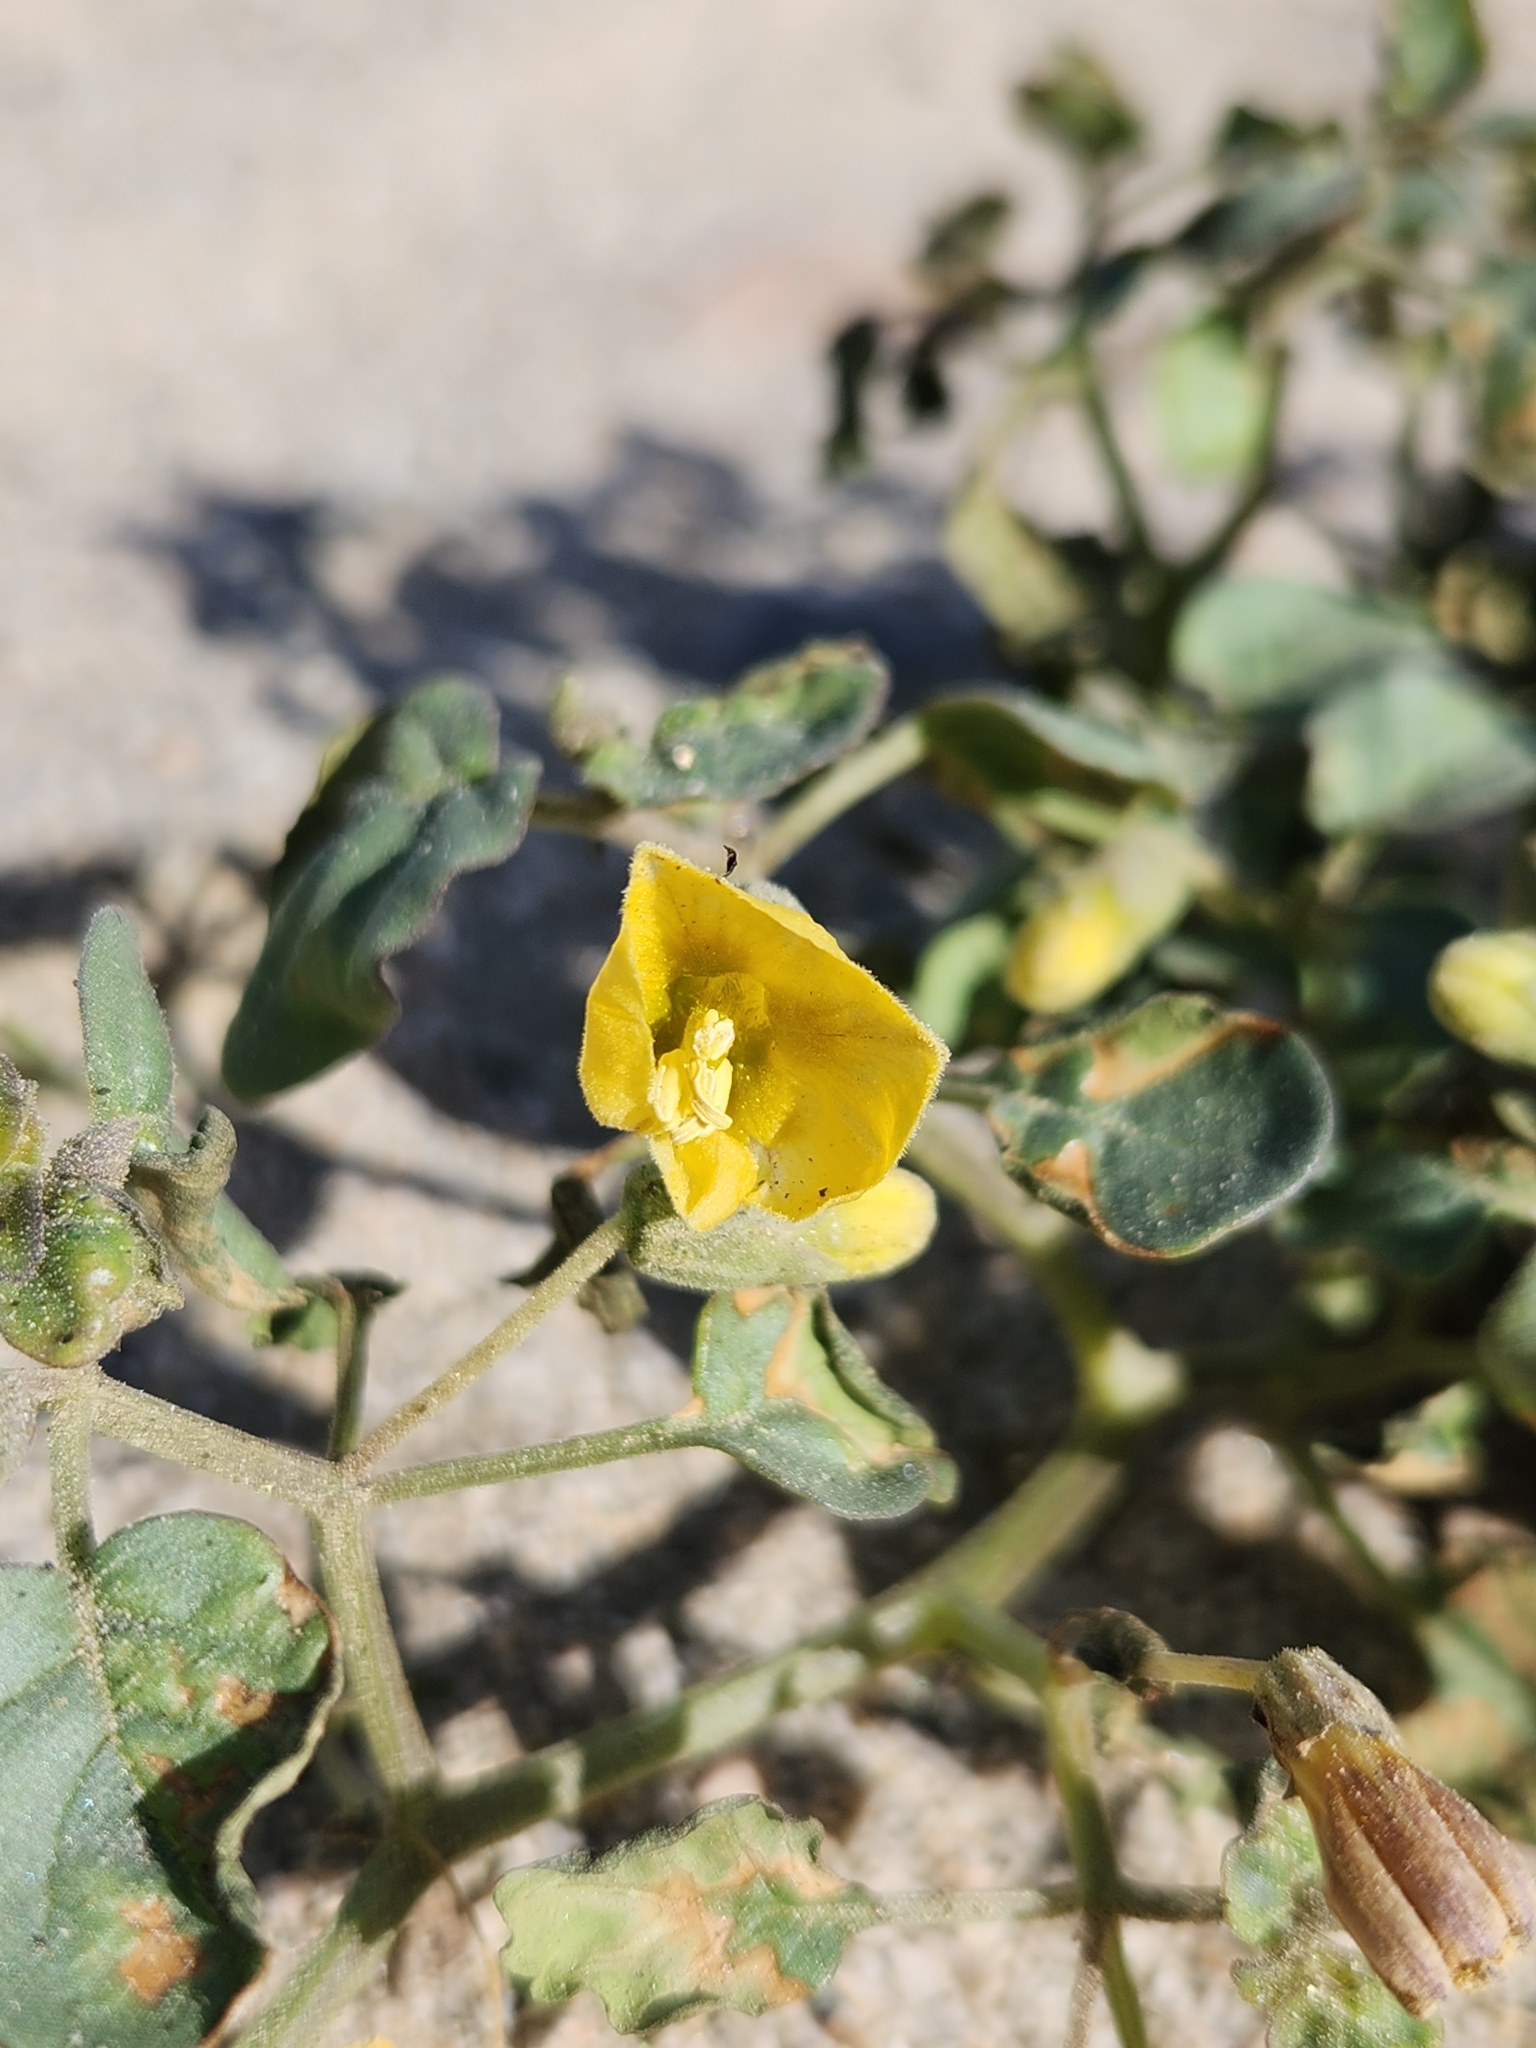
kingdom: Plantae
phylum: Tracheophyta
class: Magnoliopsida
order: Solanales
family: Solanaceae
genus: Physalis
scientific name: Physalis crassifolia
